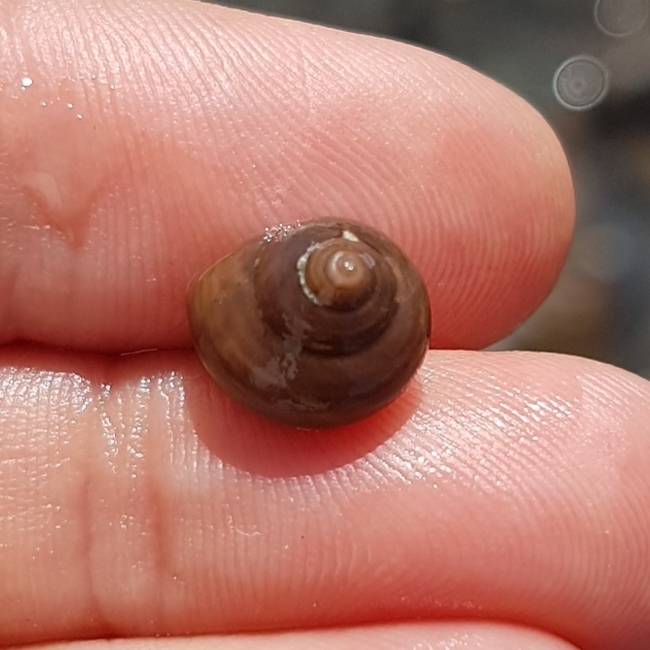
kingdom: Animalia
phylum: Mollusca
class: Gastropoda
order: Trochida
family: Trochidae
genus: Clanculus
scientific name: Clanculus jussieui
